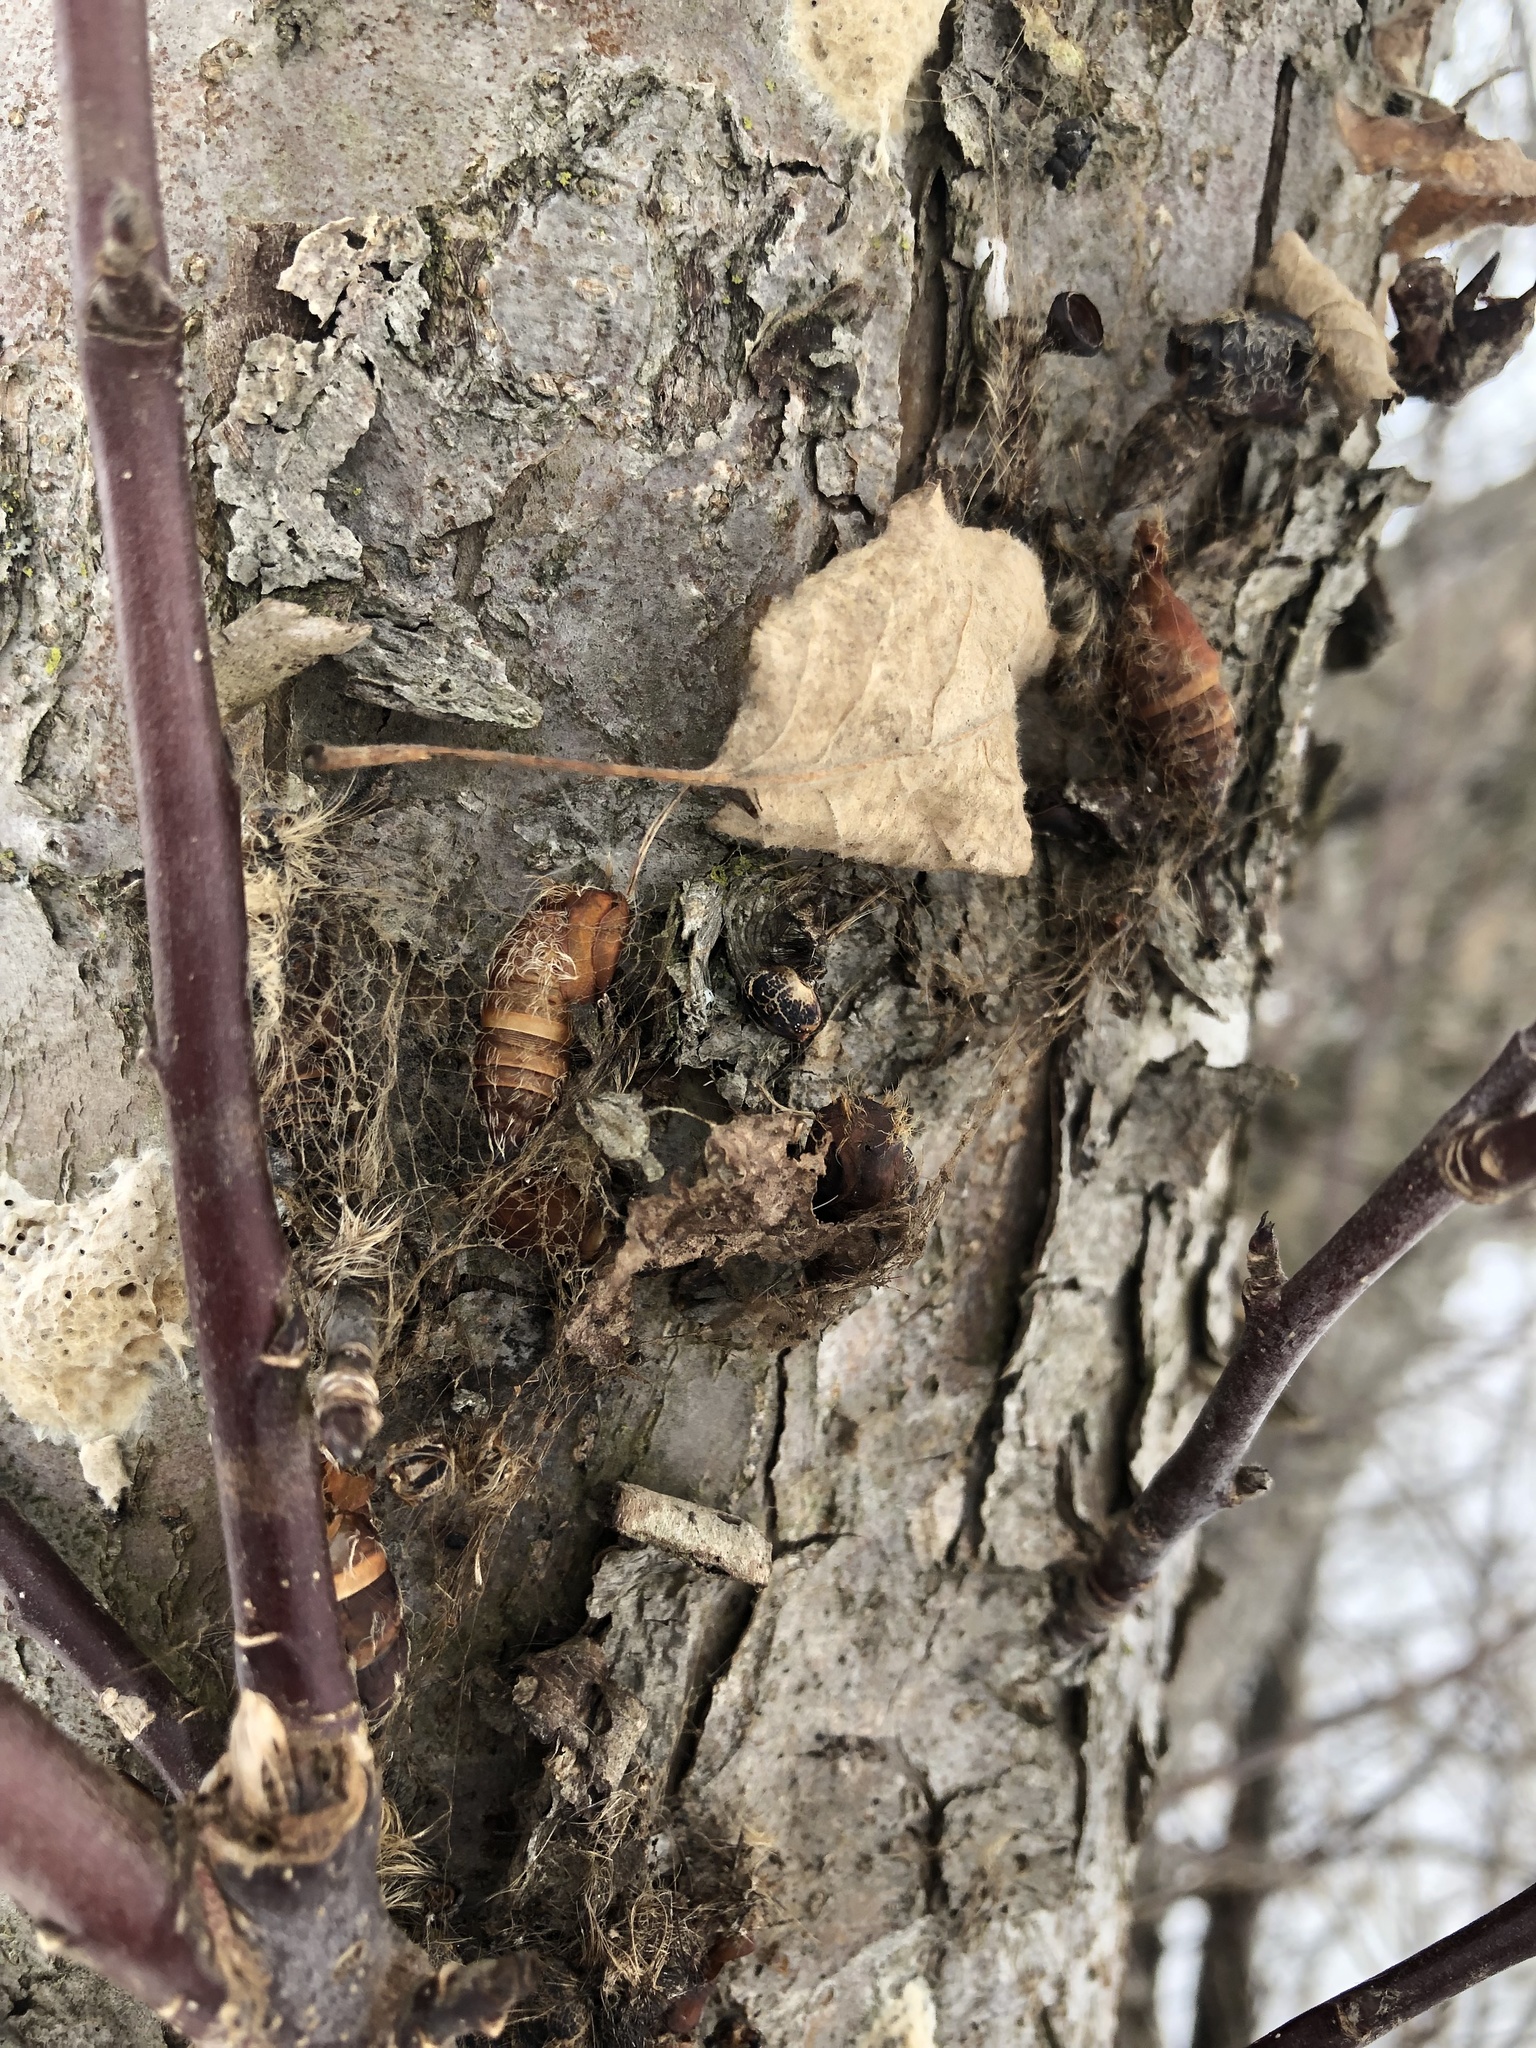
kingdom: Animalia
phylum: Arthropoda
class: Insecta
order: Lepidoptera
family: Erebidae
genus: Lymantria
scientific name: Lymantria dispar
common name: Gypsy moth
